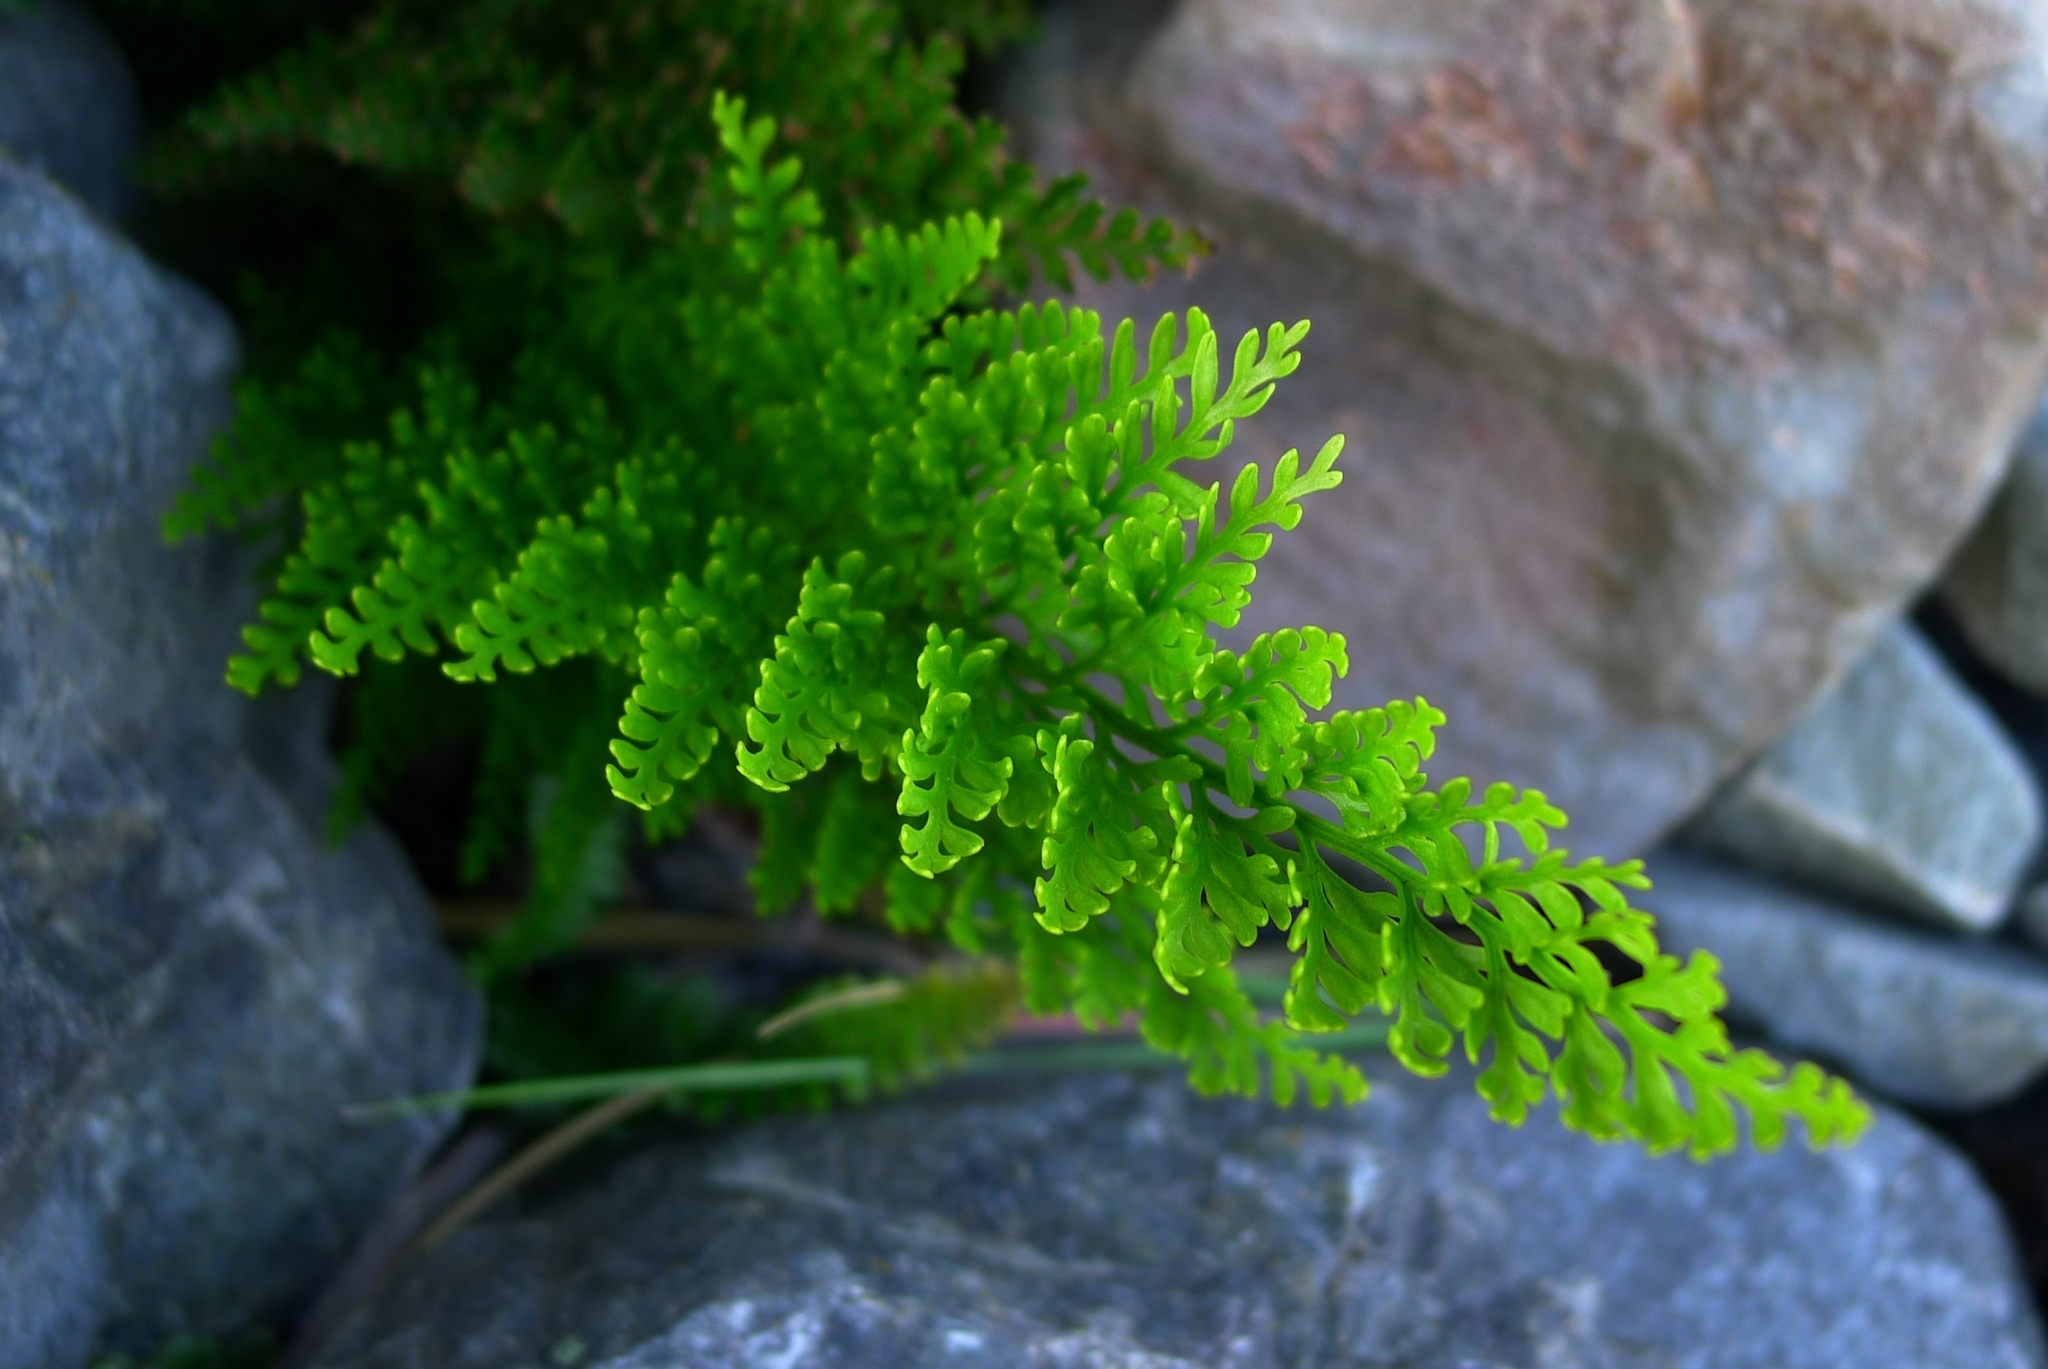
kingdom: Plantae
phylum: Tracheophyta
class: Polypodiopsida
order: Polypodiales
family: Aspleniaceae
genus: Asplenium
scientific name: Asplenium richardii
